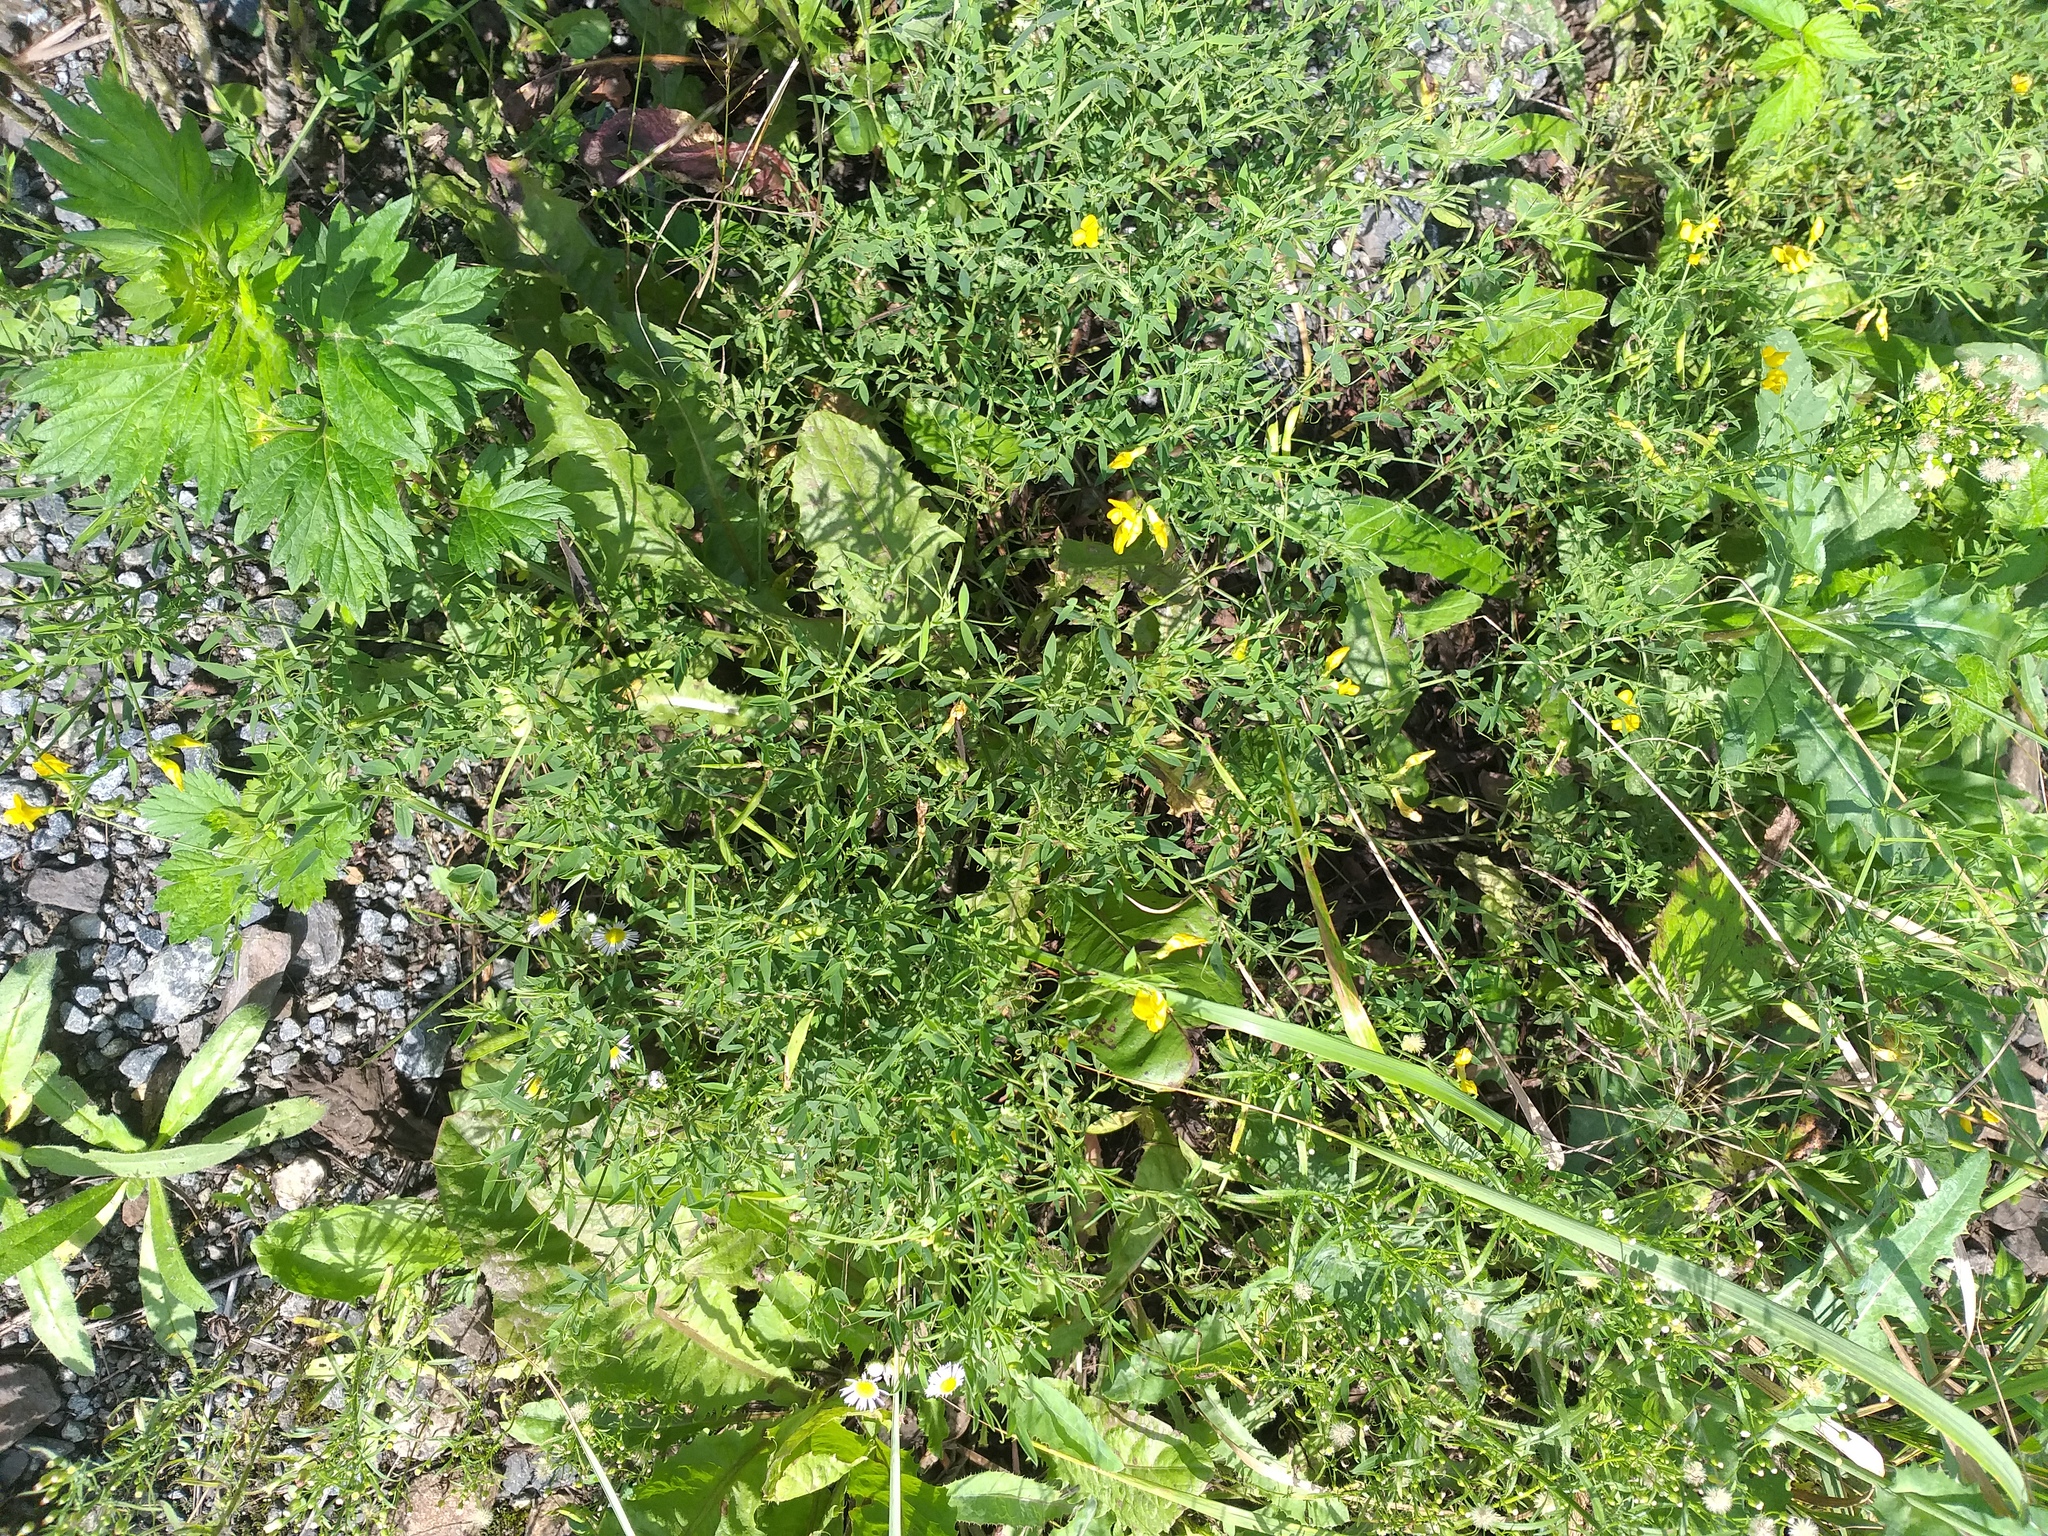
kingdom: Plantae
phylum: Tracheophyta
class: Magnoliopsida
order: Fabales
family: Fabaceae
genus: Lathyrus
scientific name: Lathyrus pratensis
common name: Meadow vetchling
